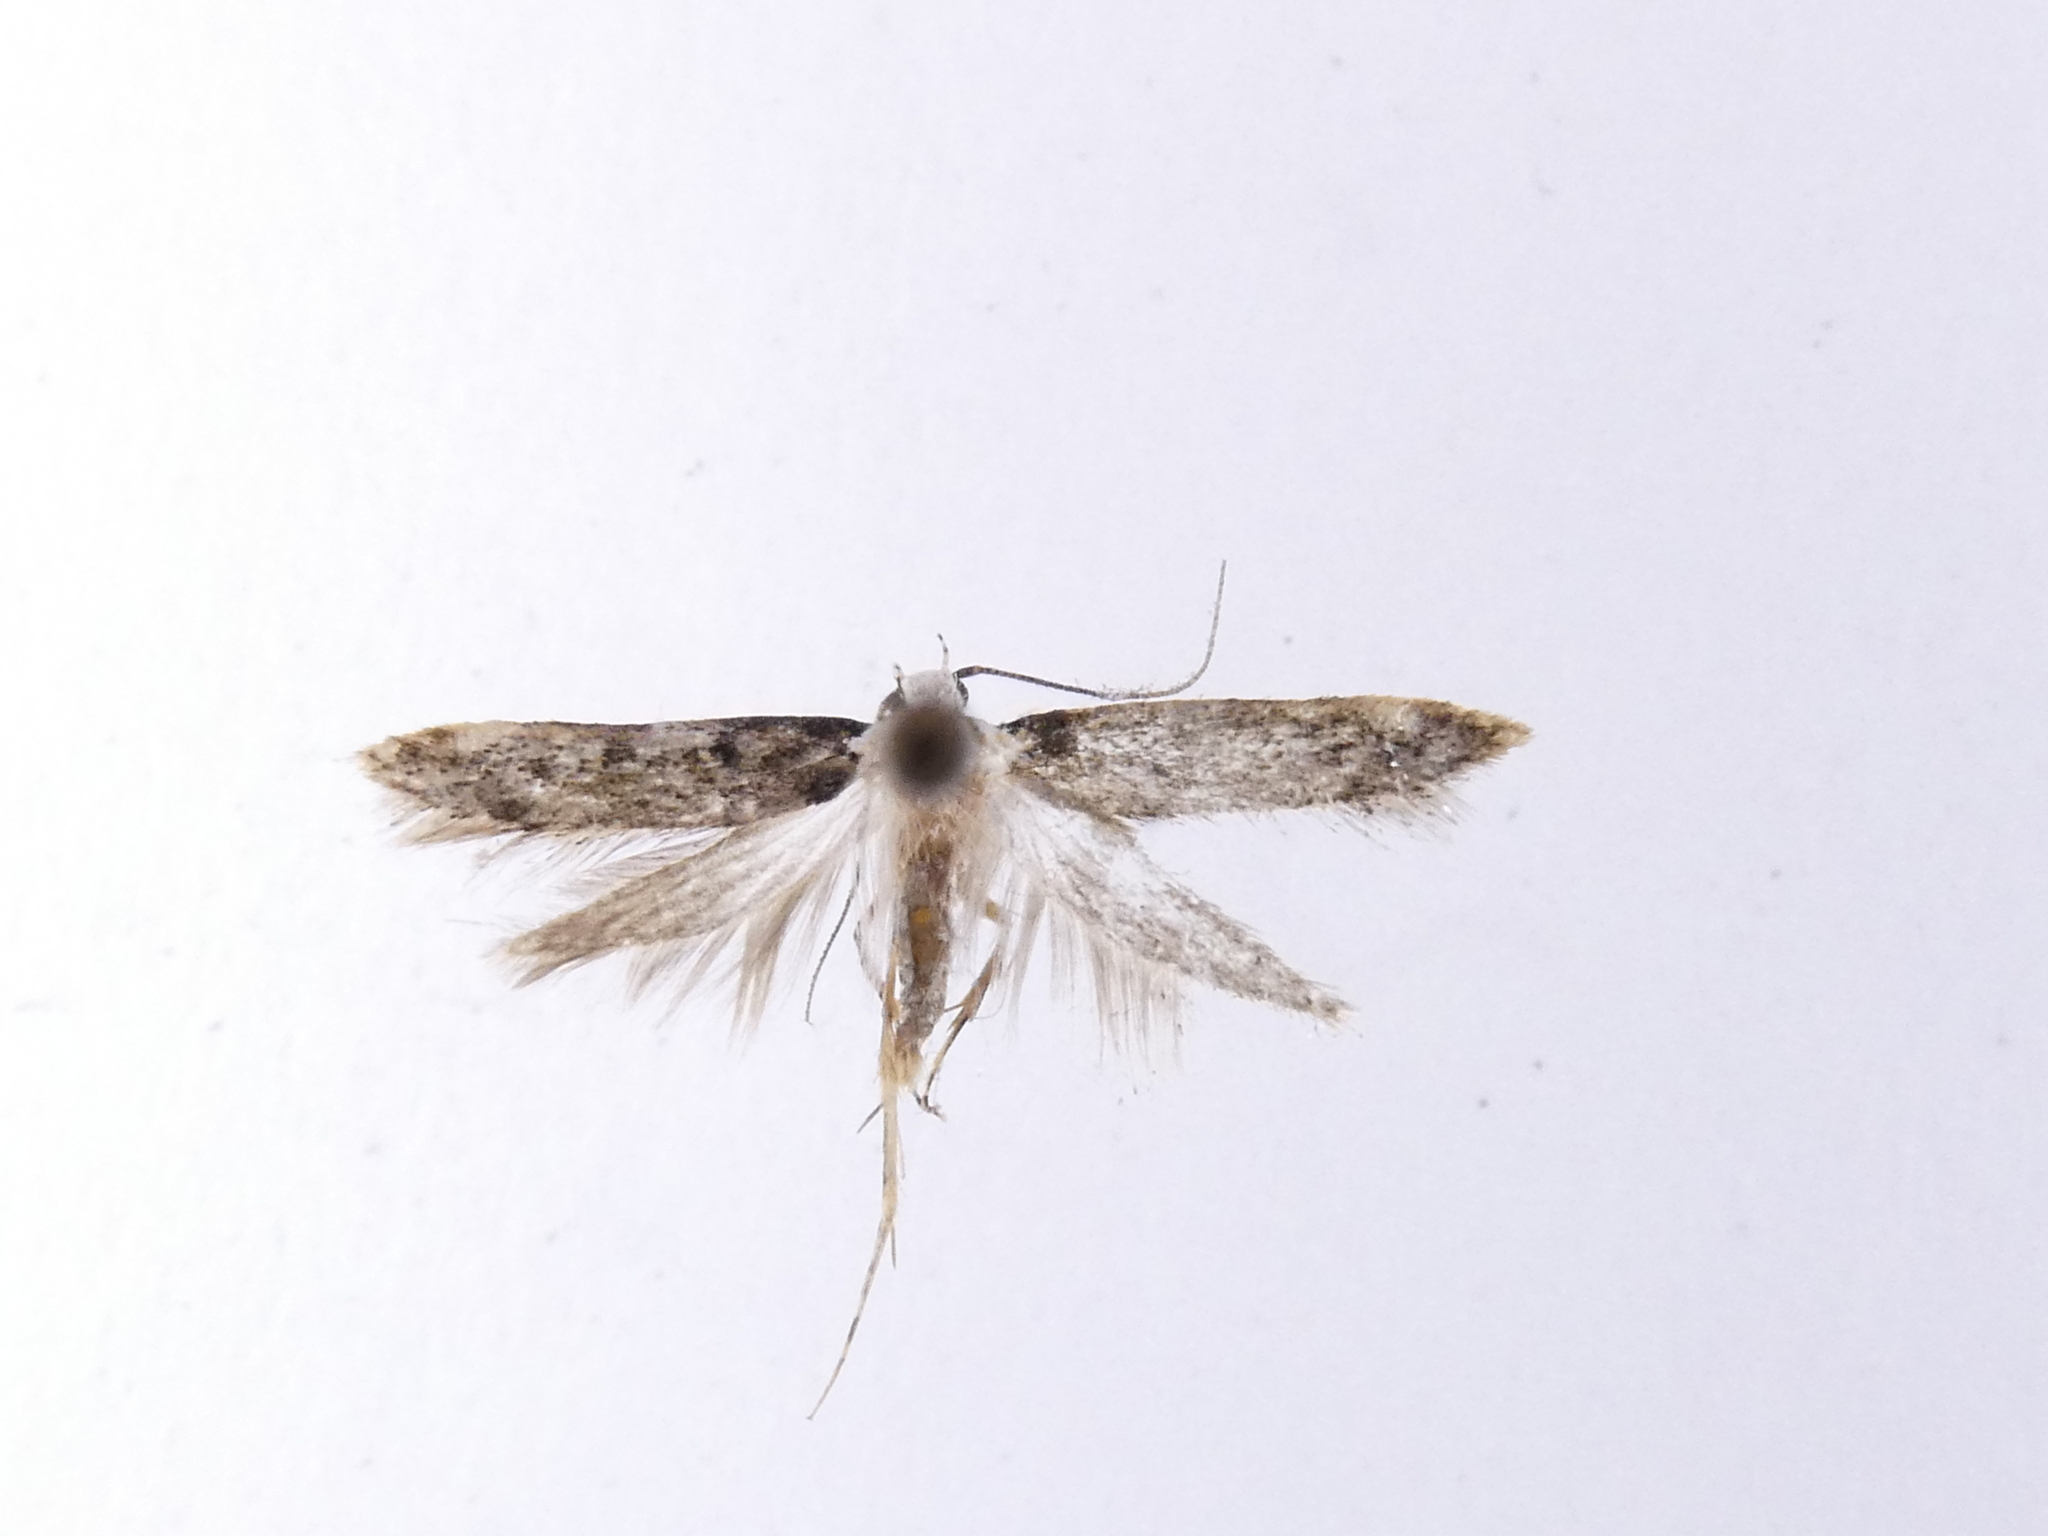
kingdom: Animalia
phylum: Arthropoda
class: Insecta
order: Lepidoptera
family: Oecophoridae
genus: Endrosis
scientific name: Endrosis sarcitrella
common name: White-shouldered house moth
